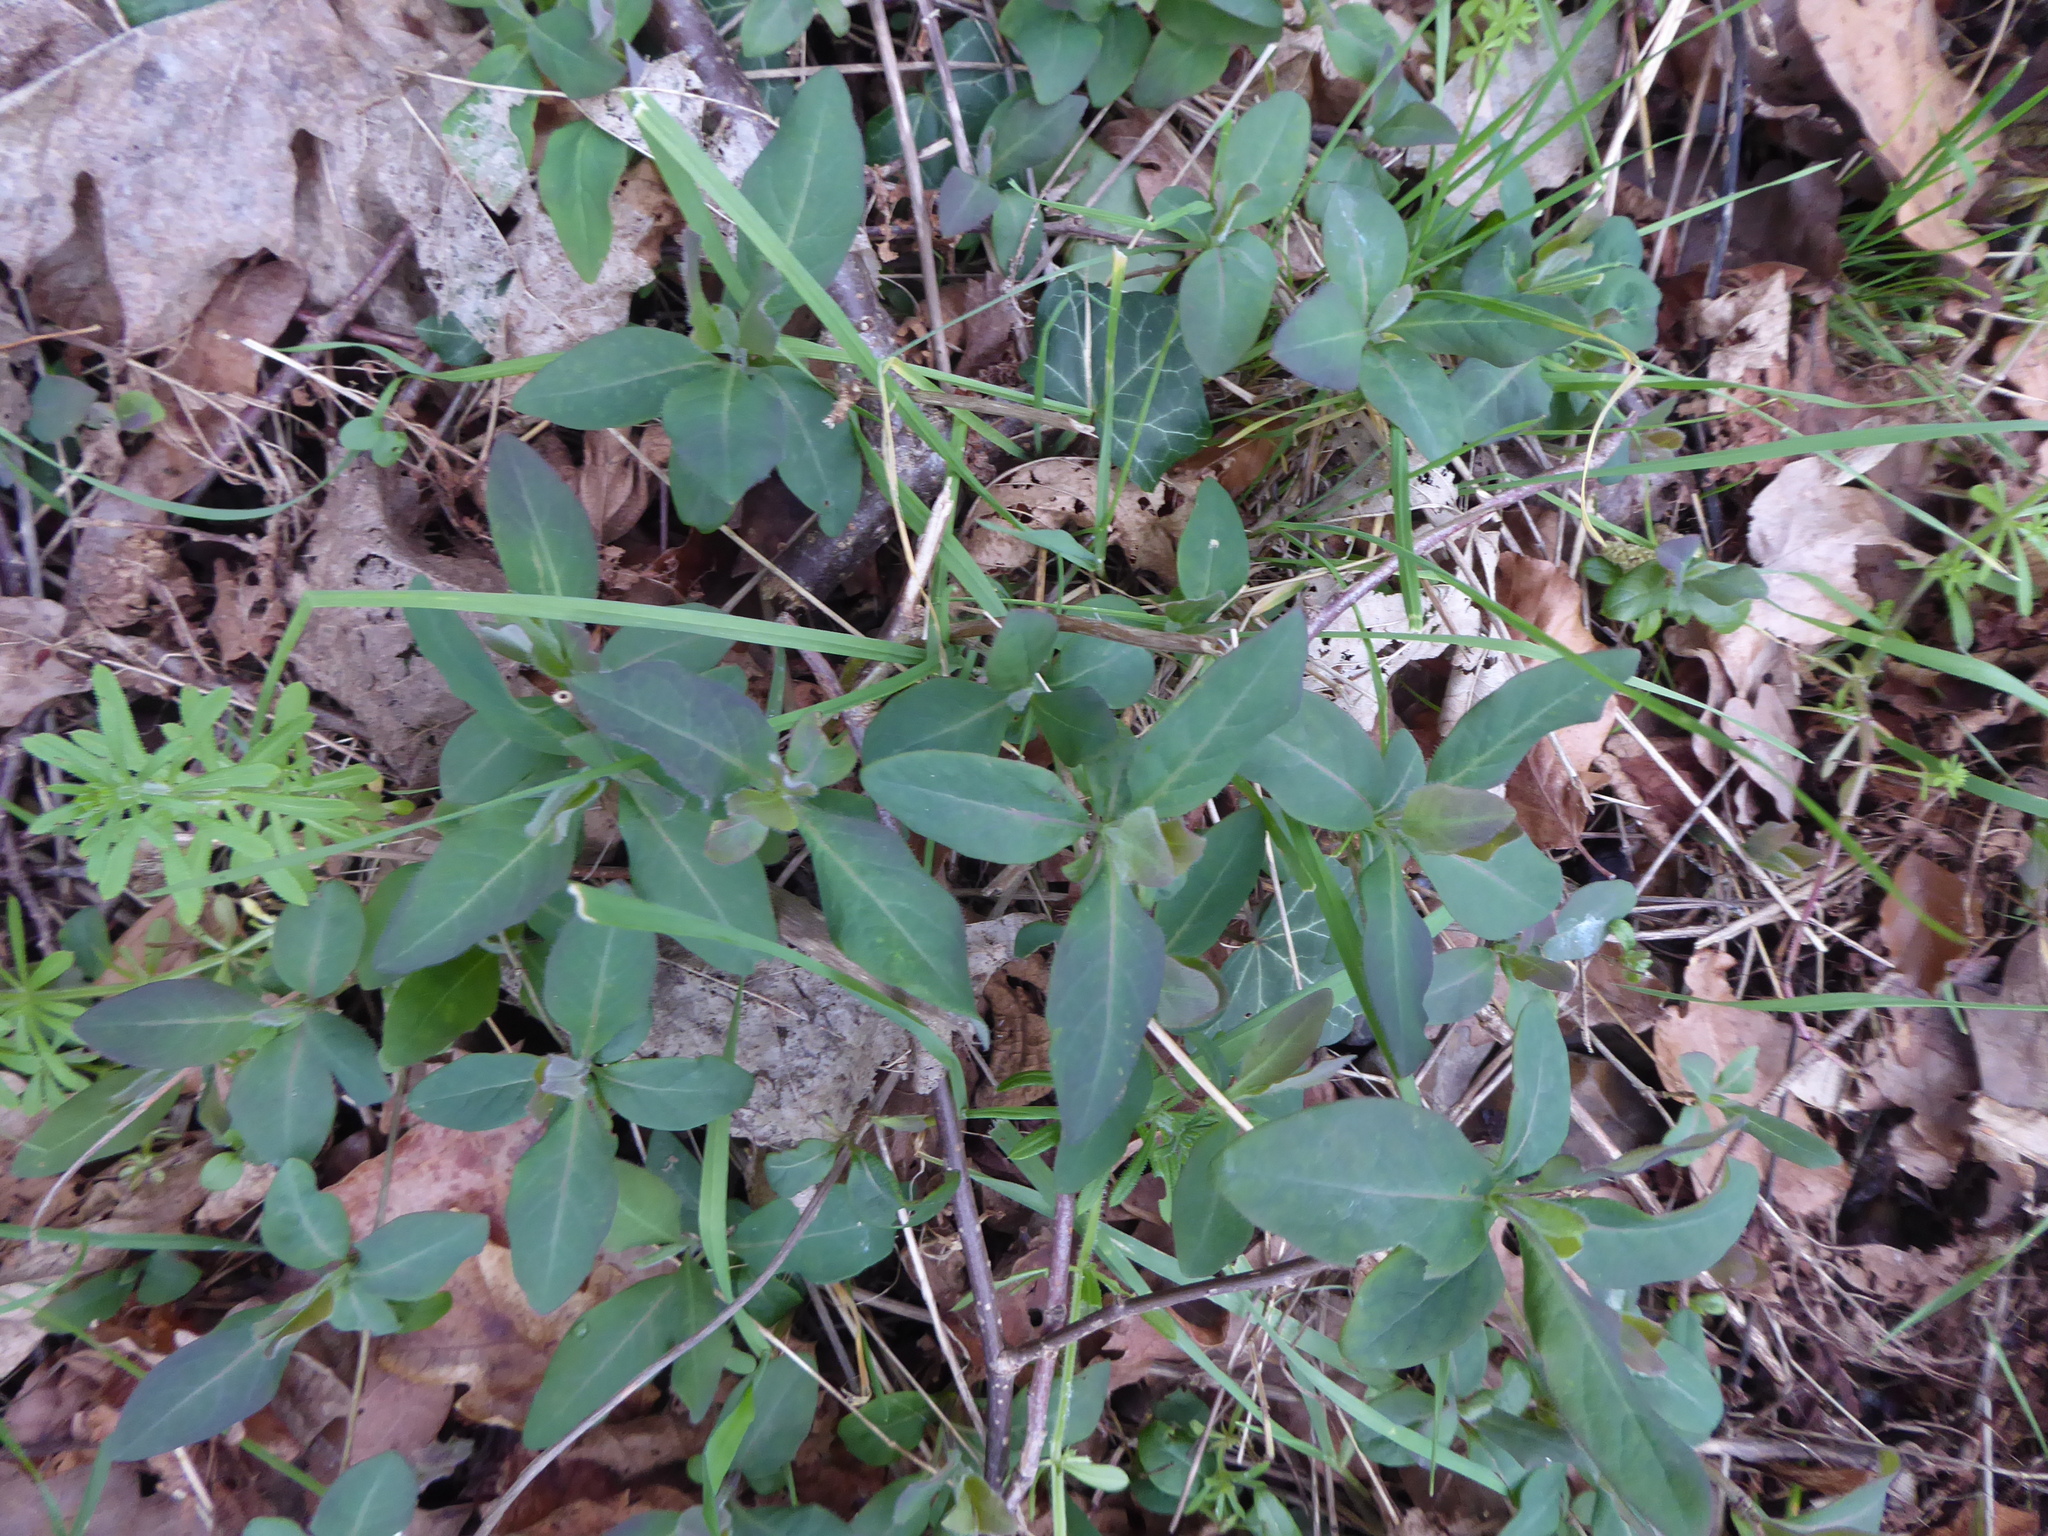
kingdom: Plantae
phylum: Tracheophyta
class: Magnoliopsida
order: Dipsacales
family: Caprifoliaceae
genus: Lonicera
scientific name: Lonicera periclymenum
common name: European honeysuckle
